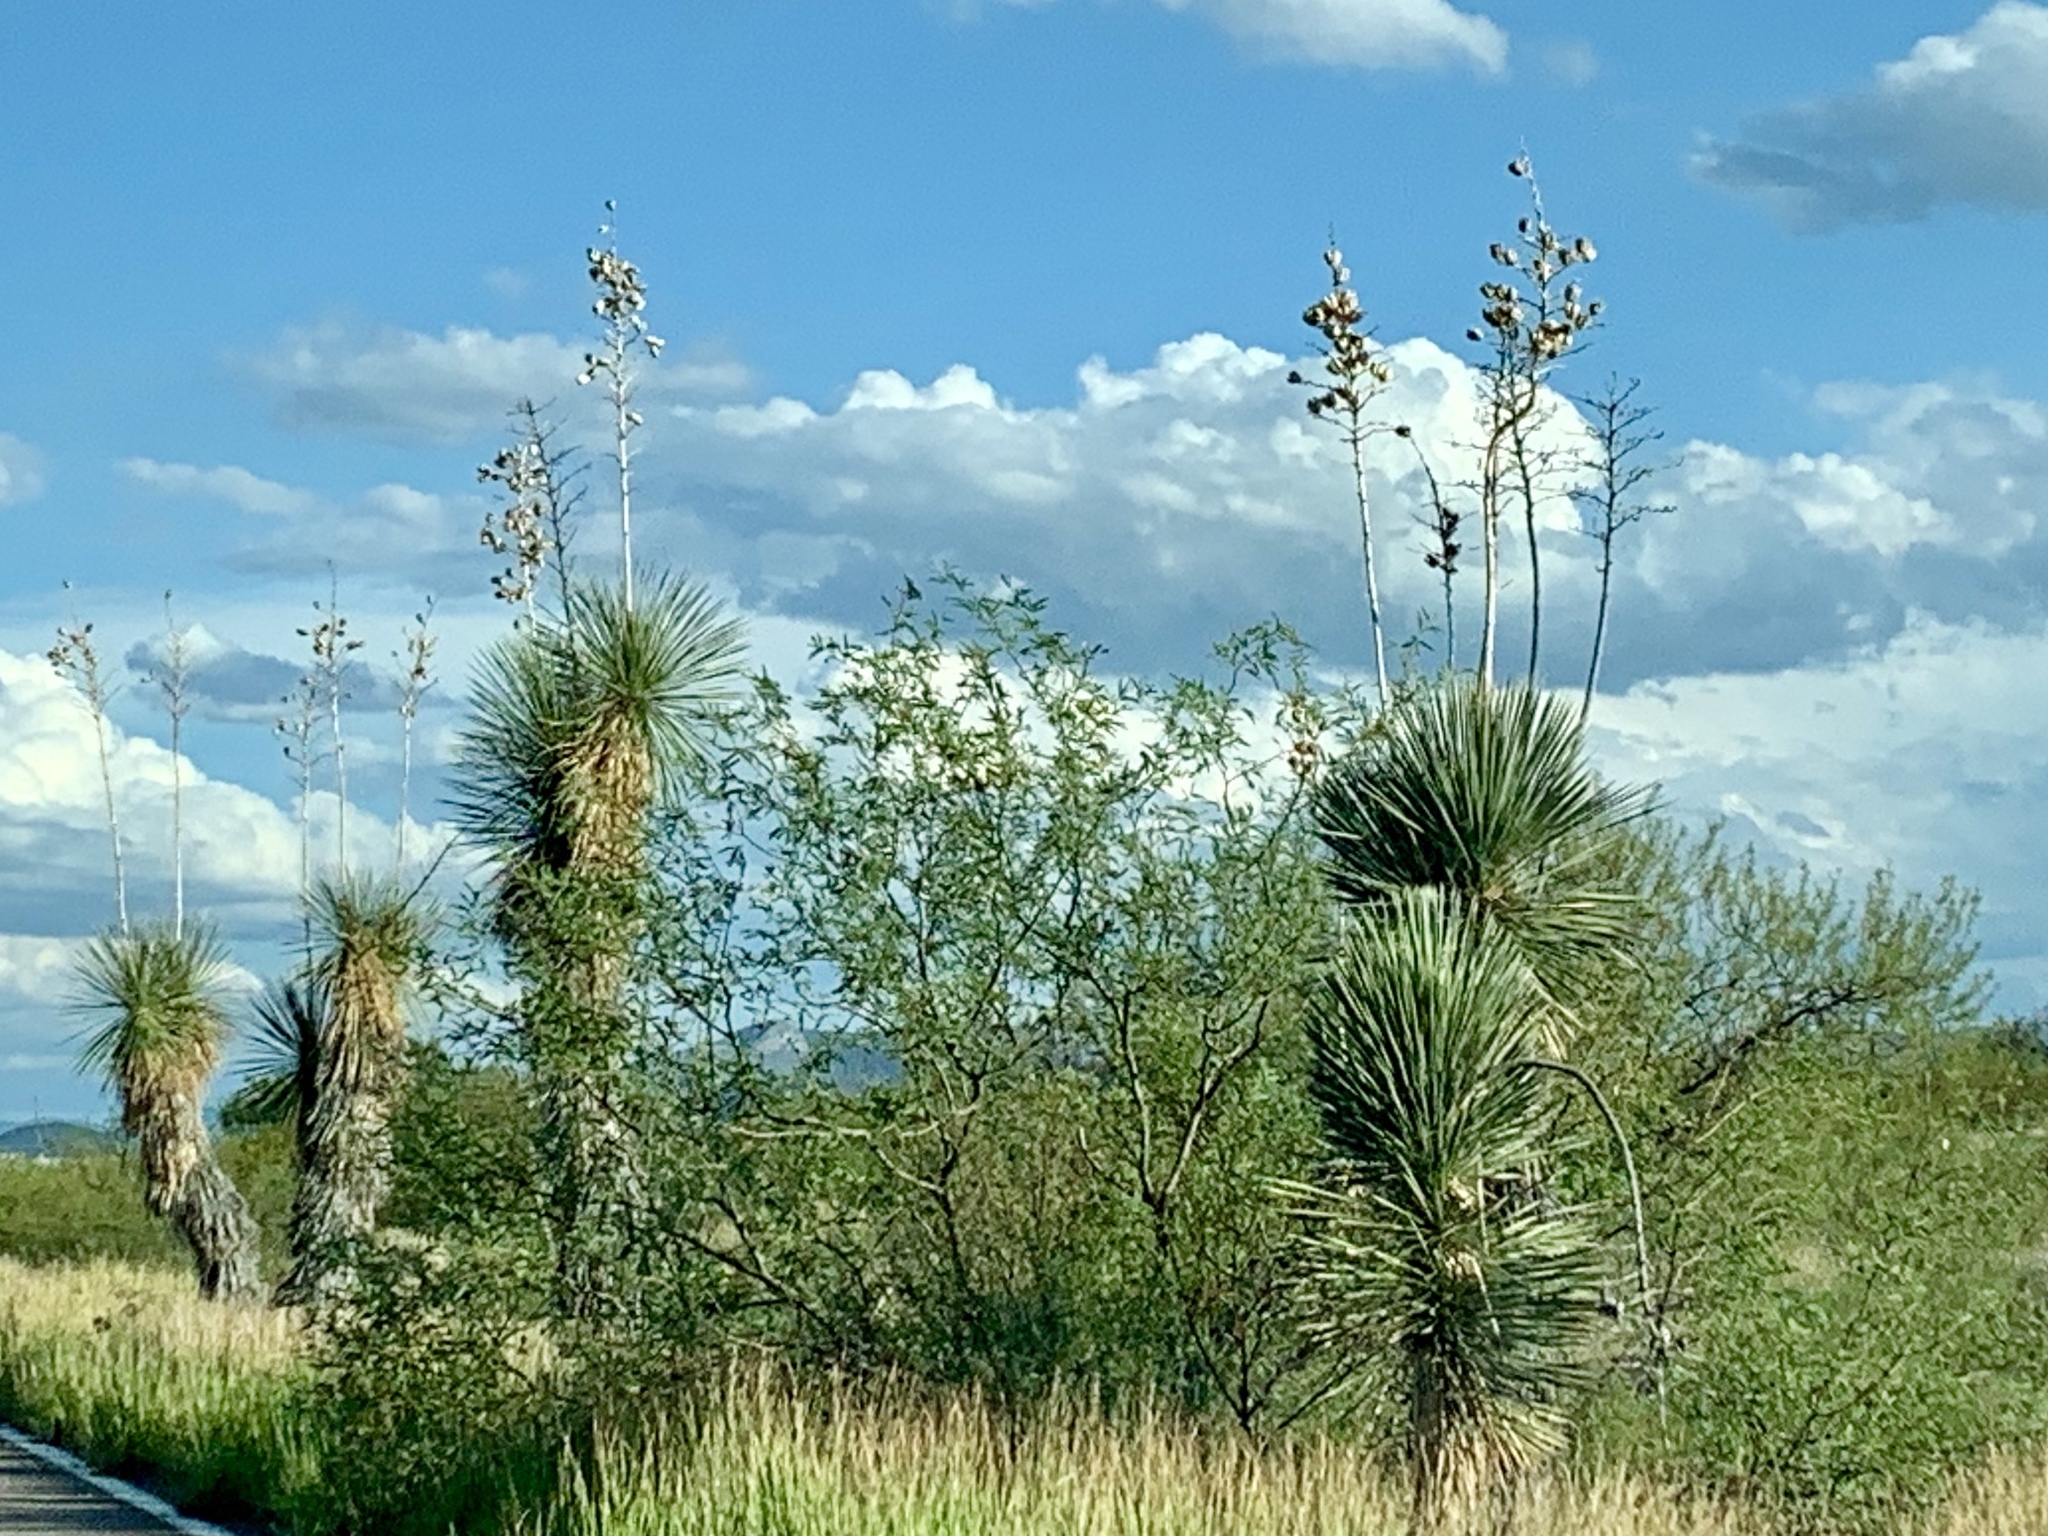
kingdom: Plantae
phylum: Tracheophyta
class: Liliopsida
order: Asparagales
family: Asparagaceae
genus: Yucca
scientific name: Yucca elata
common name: Palmella
